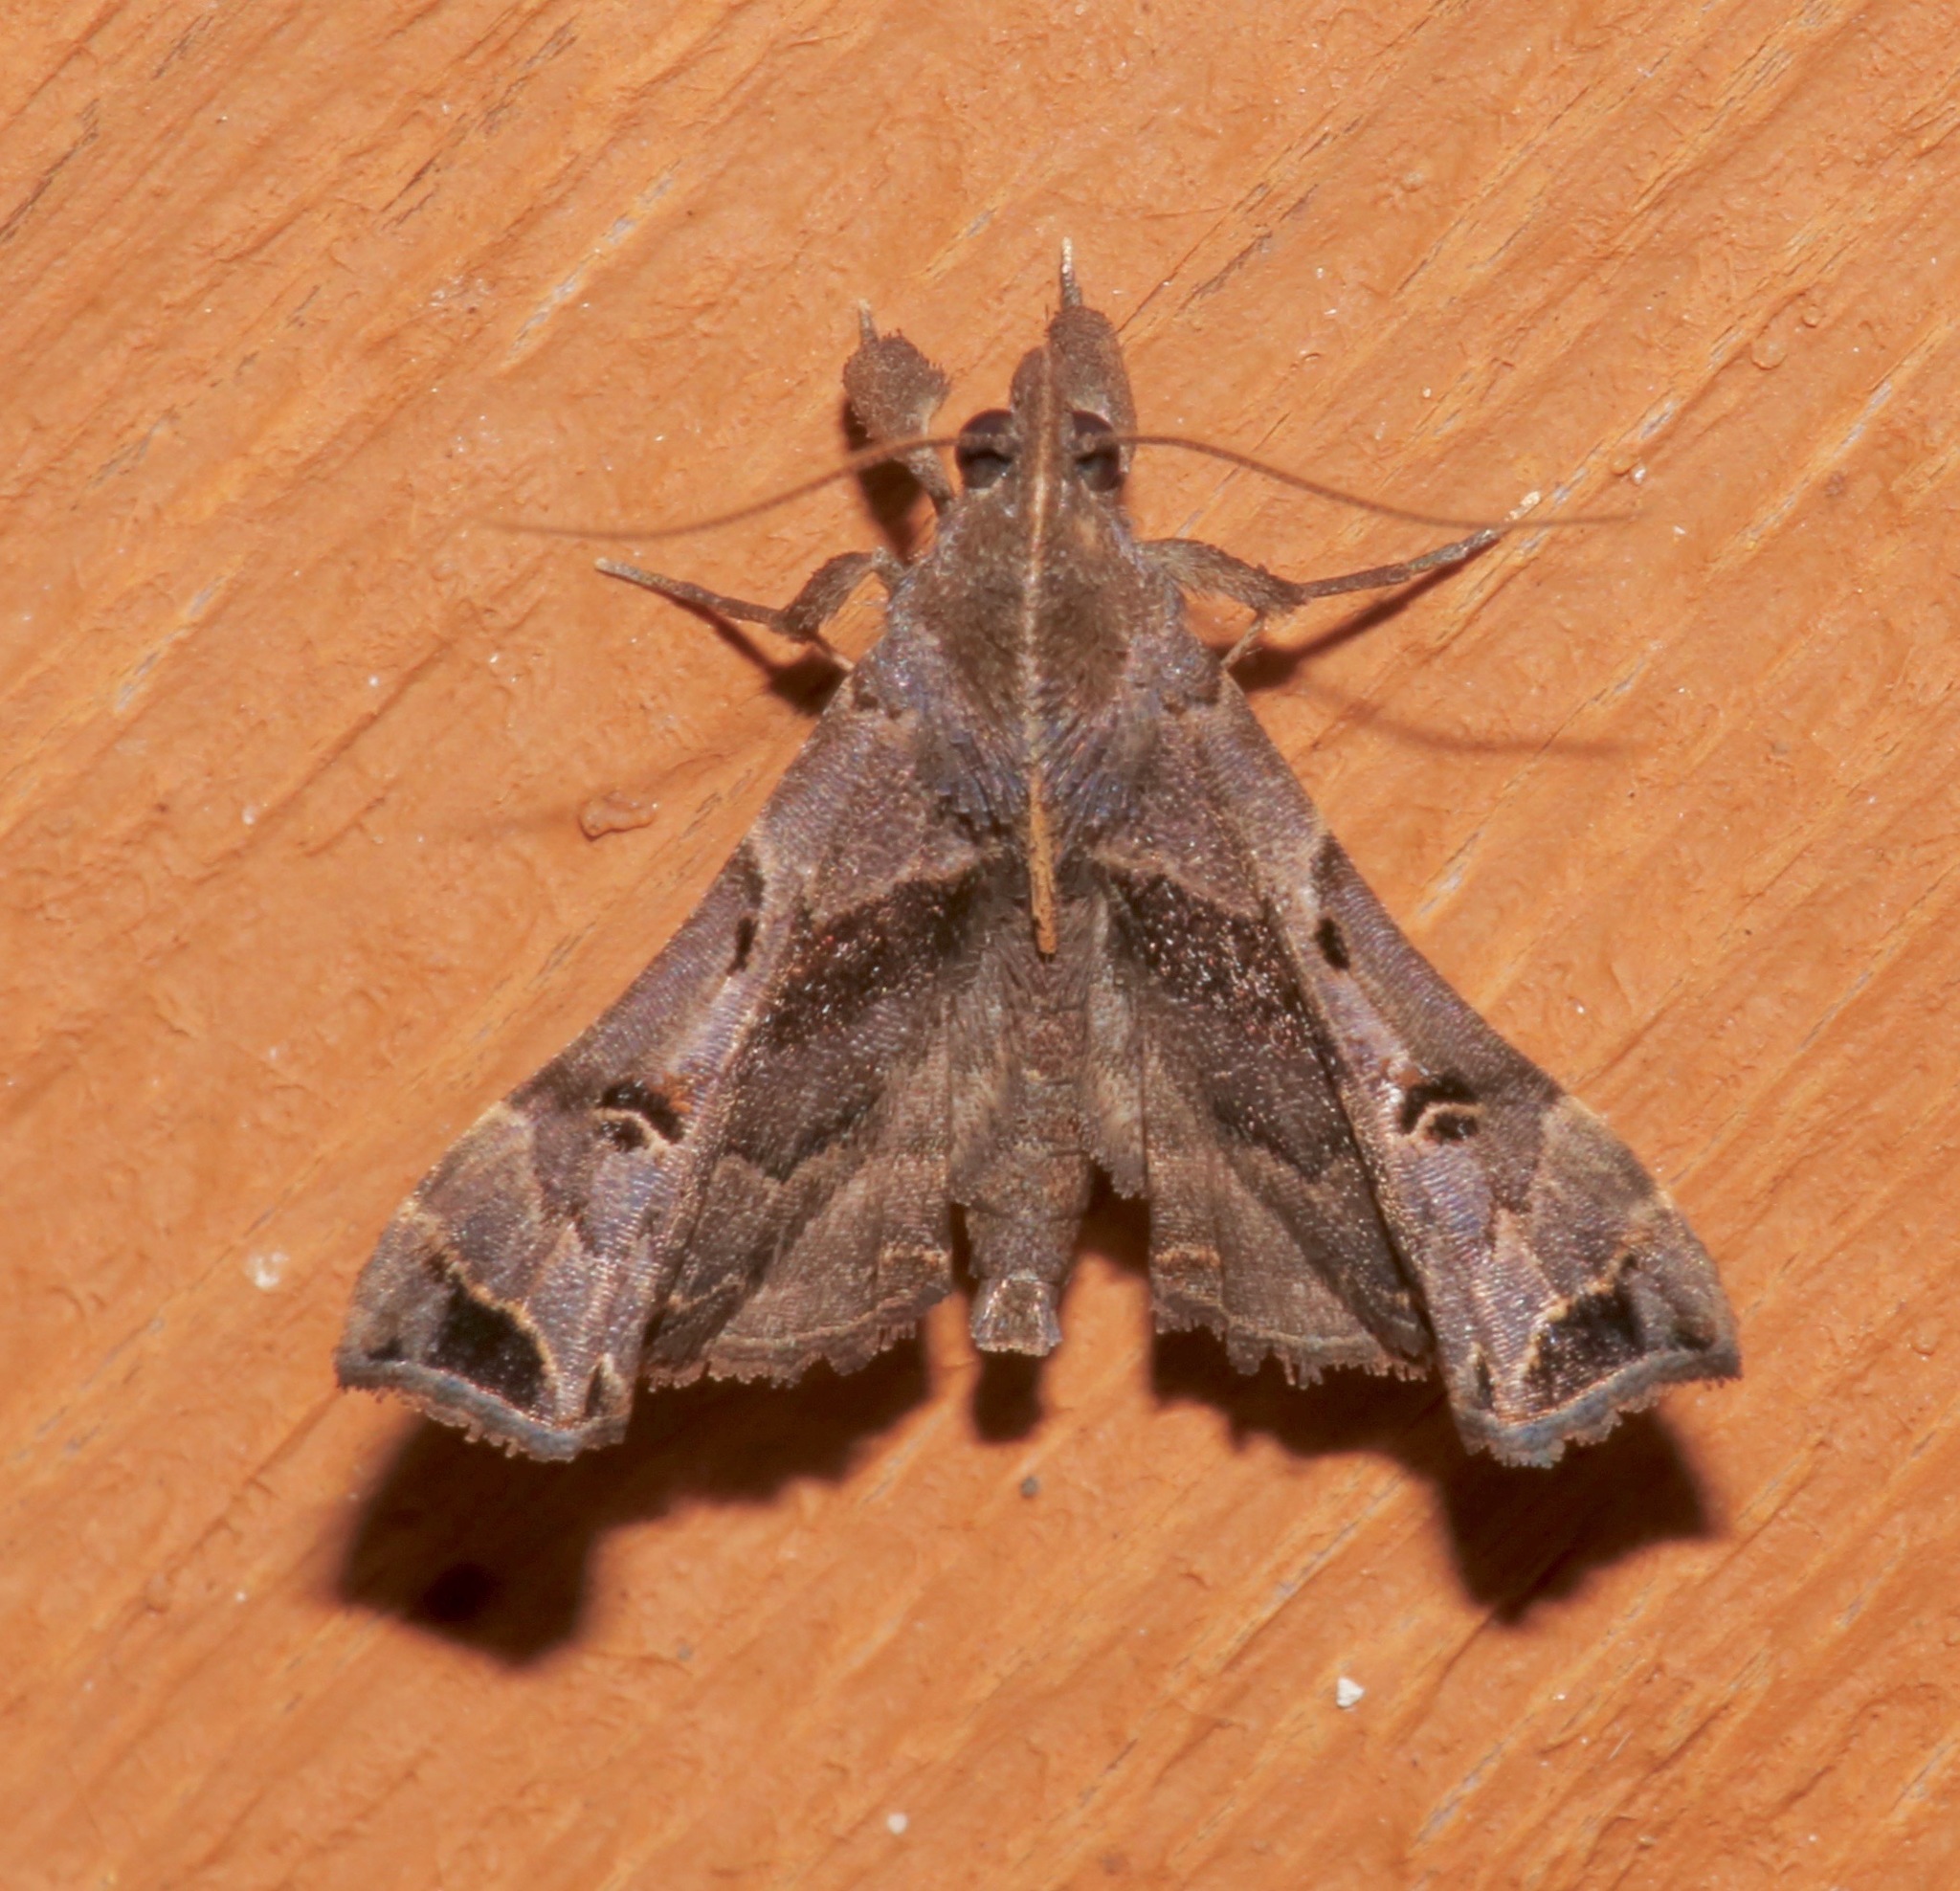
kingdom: Animalia
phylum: Arthropoda
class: Insecta
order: Lepidoptera
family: Erebidae
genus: Palthis
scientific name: Palthis asopialis
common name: Faint-spotted palthis moth
